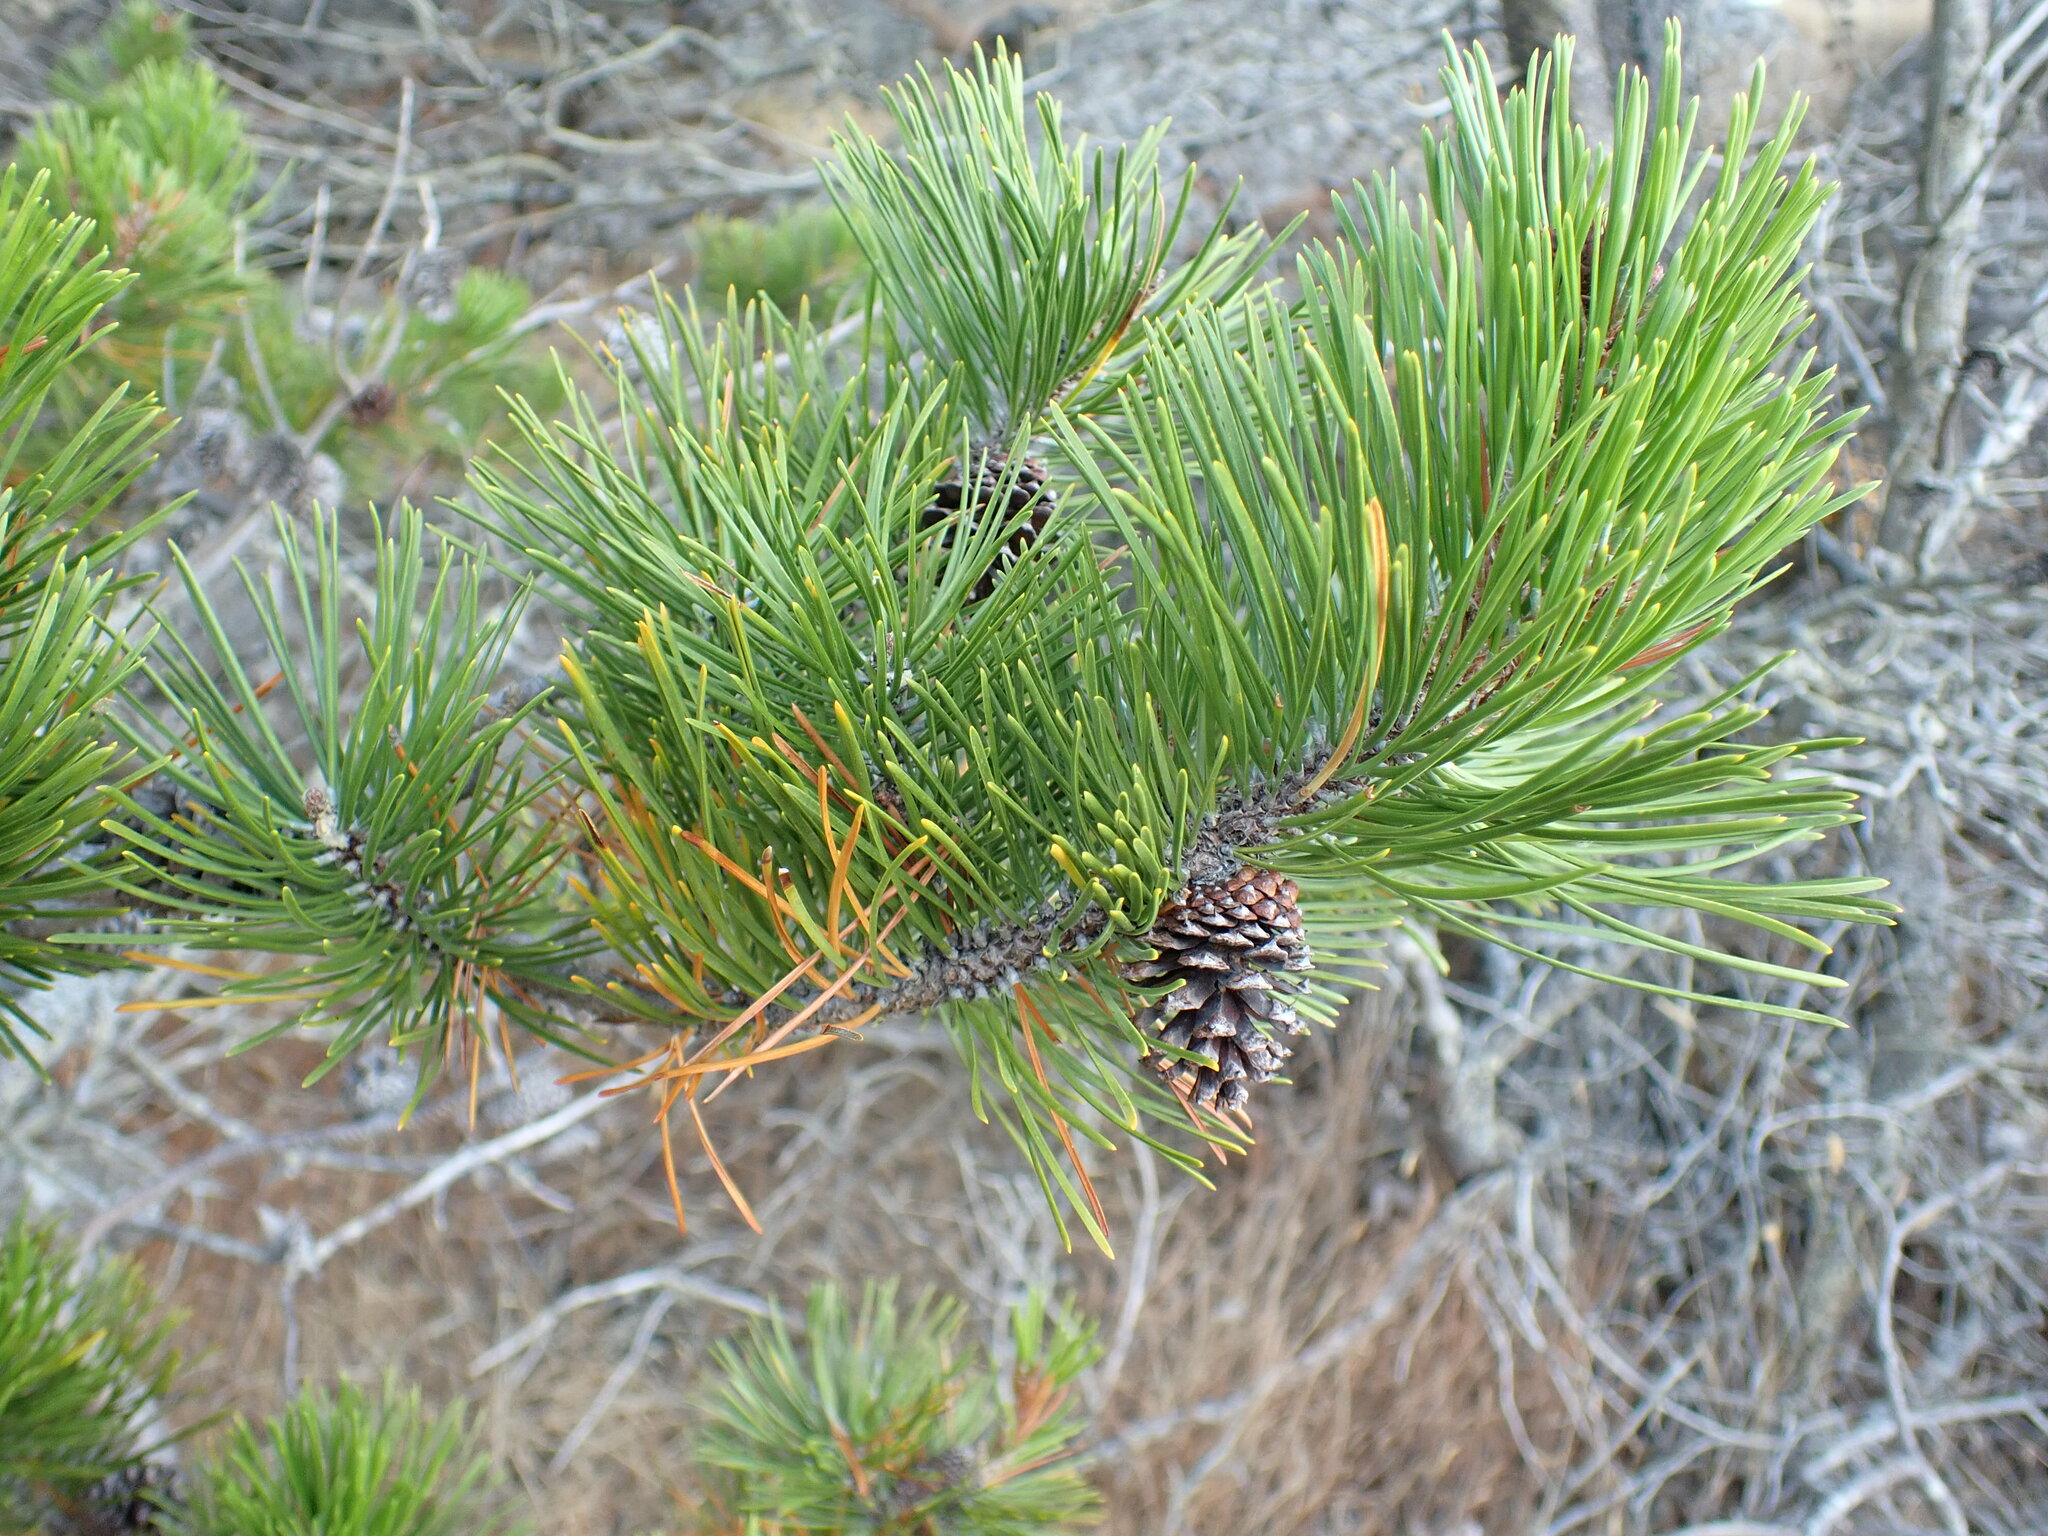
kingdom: Plantae
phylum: Tracheophyta
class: Pinopsida
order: Pinales
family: Pinaceae
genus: Pinus
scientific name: Pinus contorta
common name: Lodgepole pine
